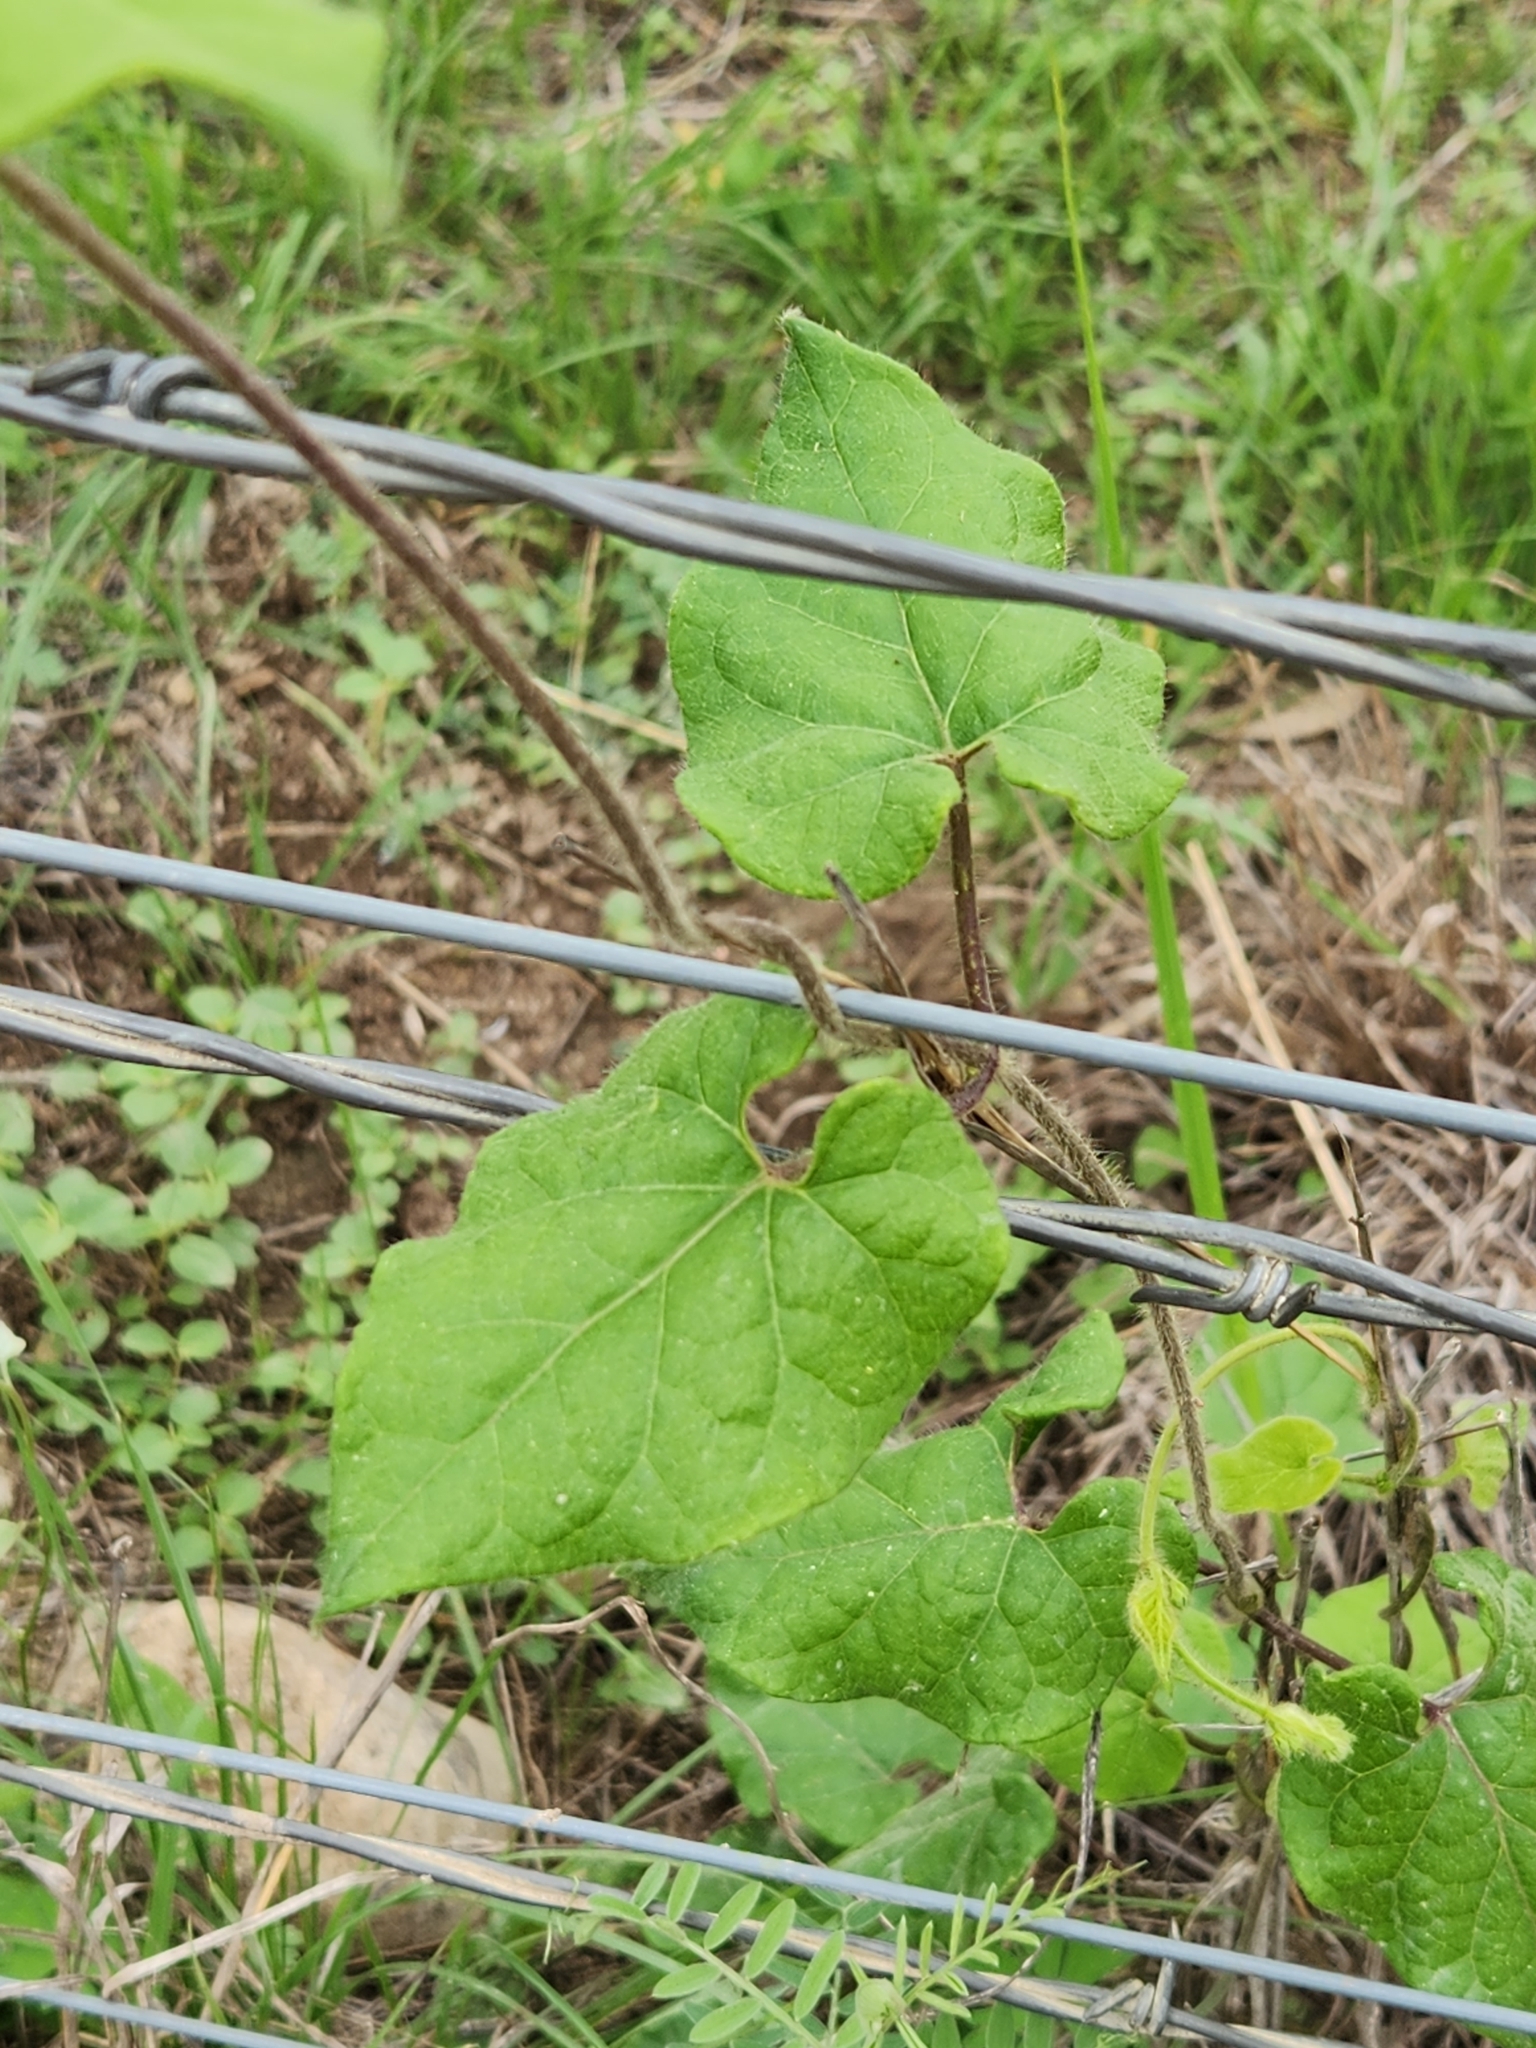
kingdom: Plantae
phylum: Tracheophyta
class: Magnoliopsida
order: Gentianales
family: Apocynaceae
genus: Dictyanthus
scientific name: Dictyanthus reticulatus
